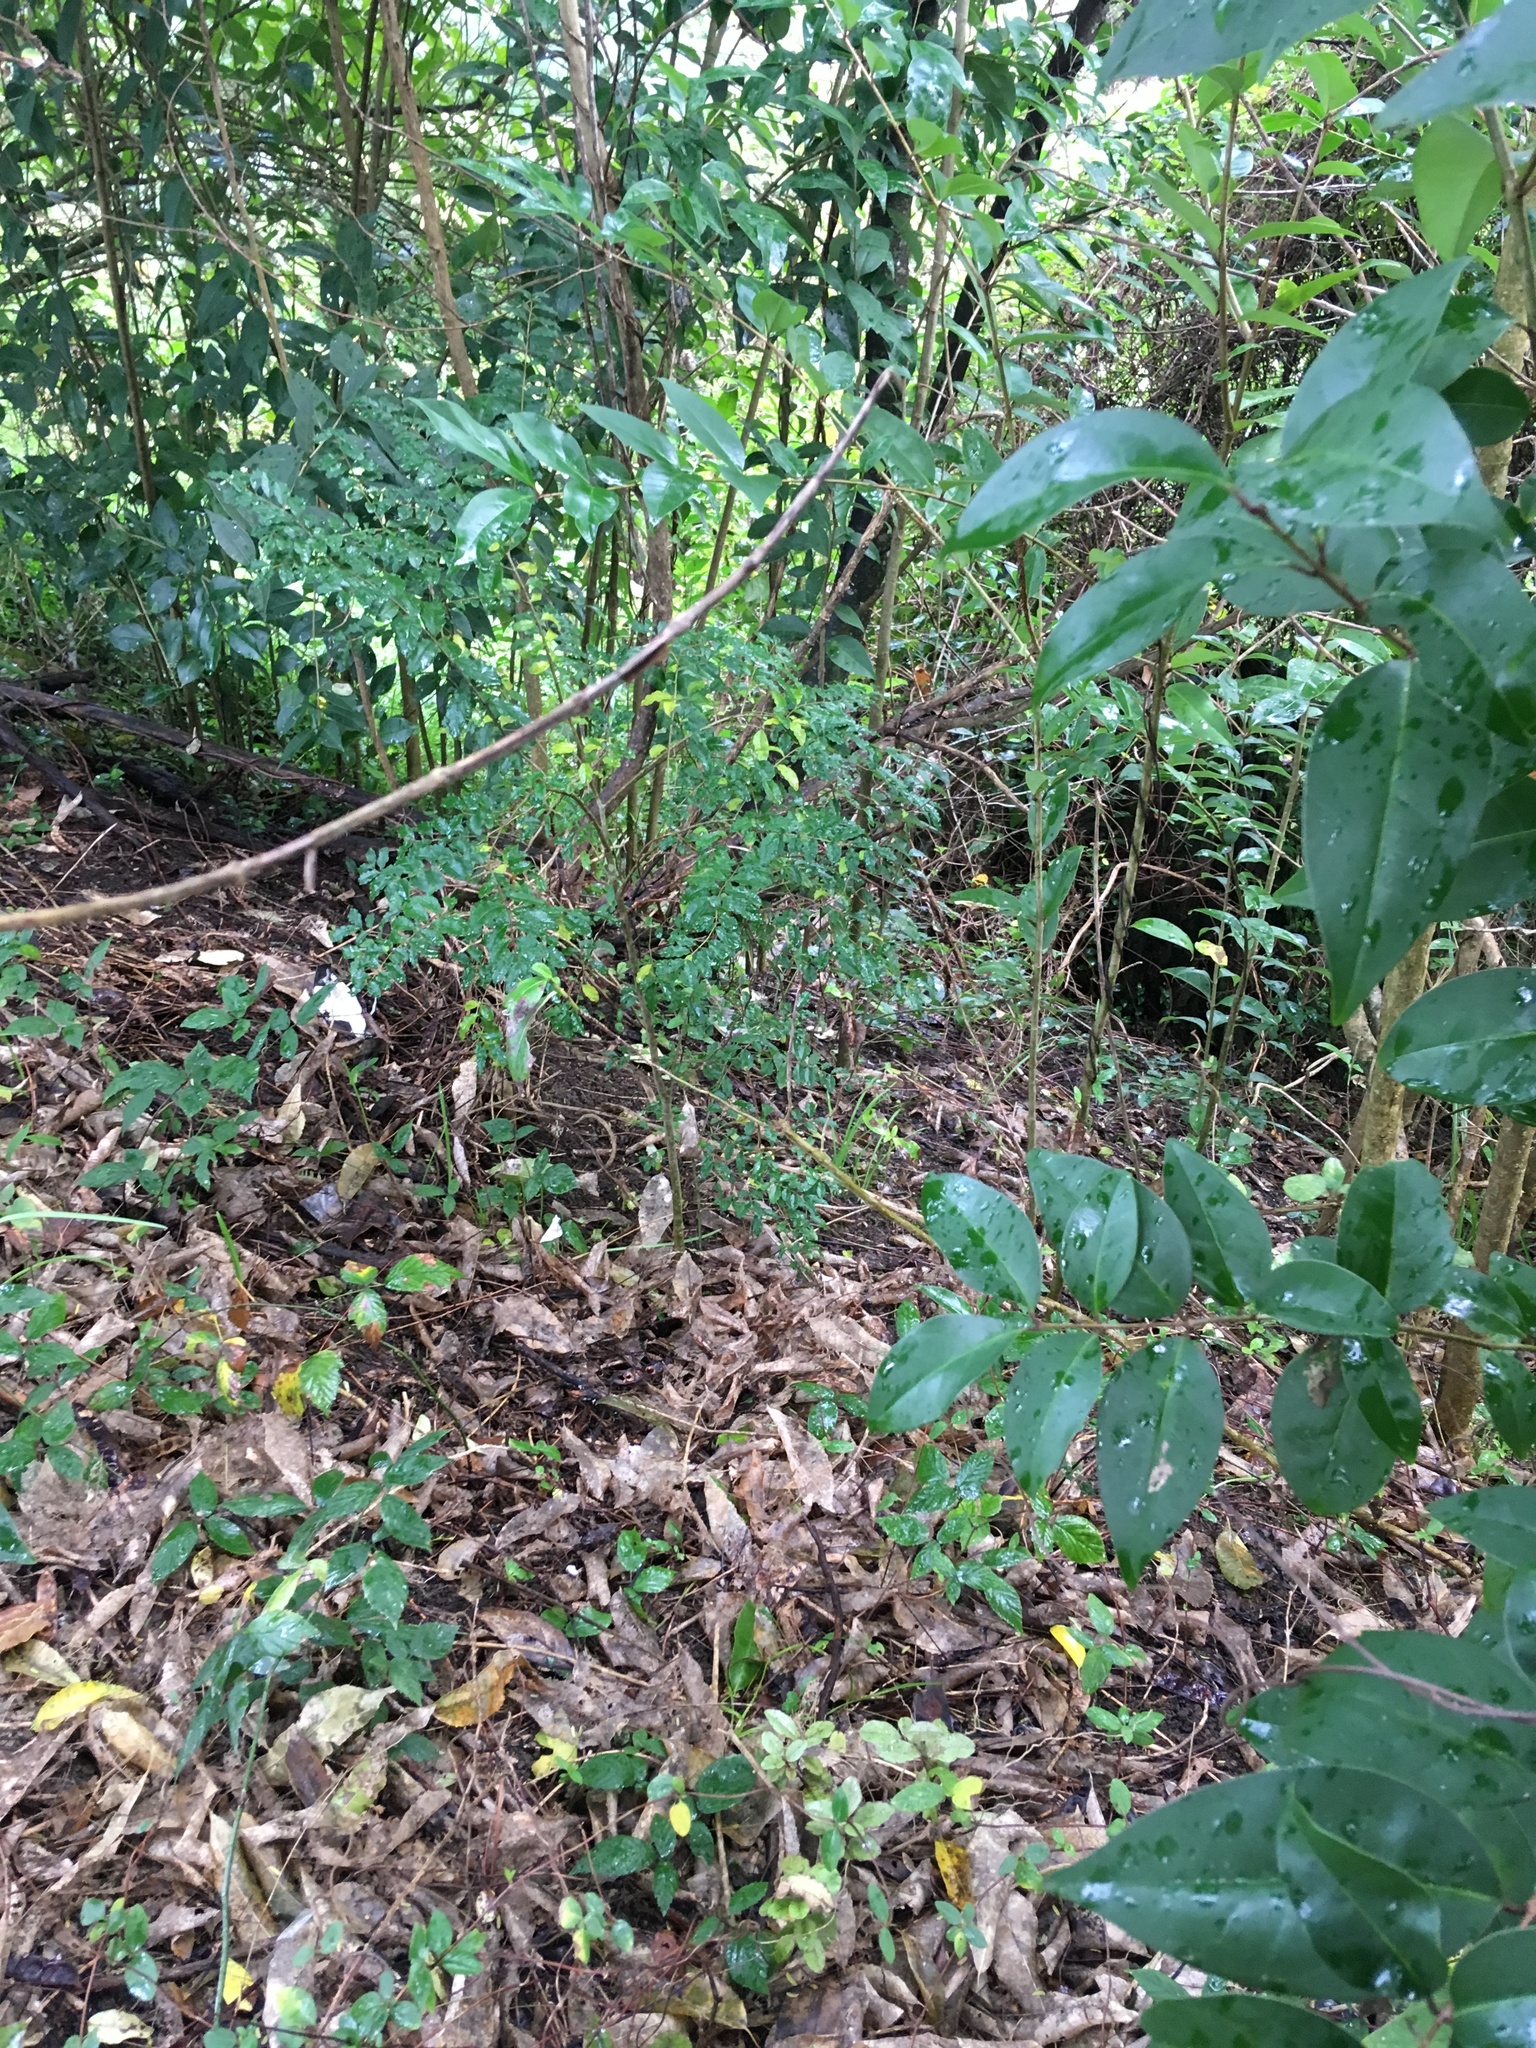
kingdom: Plantae
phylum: Tracheophyta
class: Magnoliopsida
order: Lamiales
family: Oleaceae
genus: Ligustrum
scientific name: Ligustrum sinense
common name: Chinese privet
